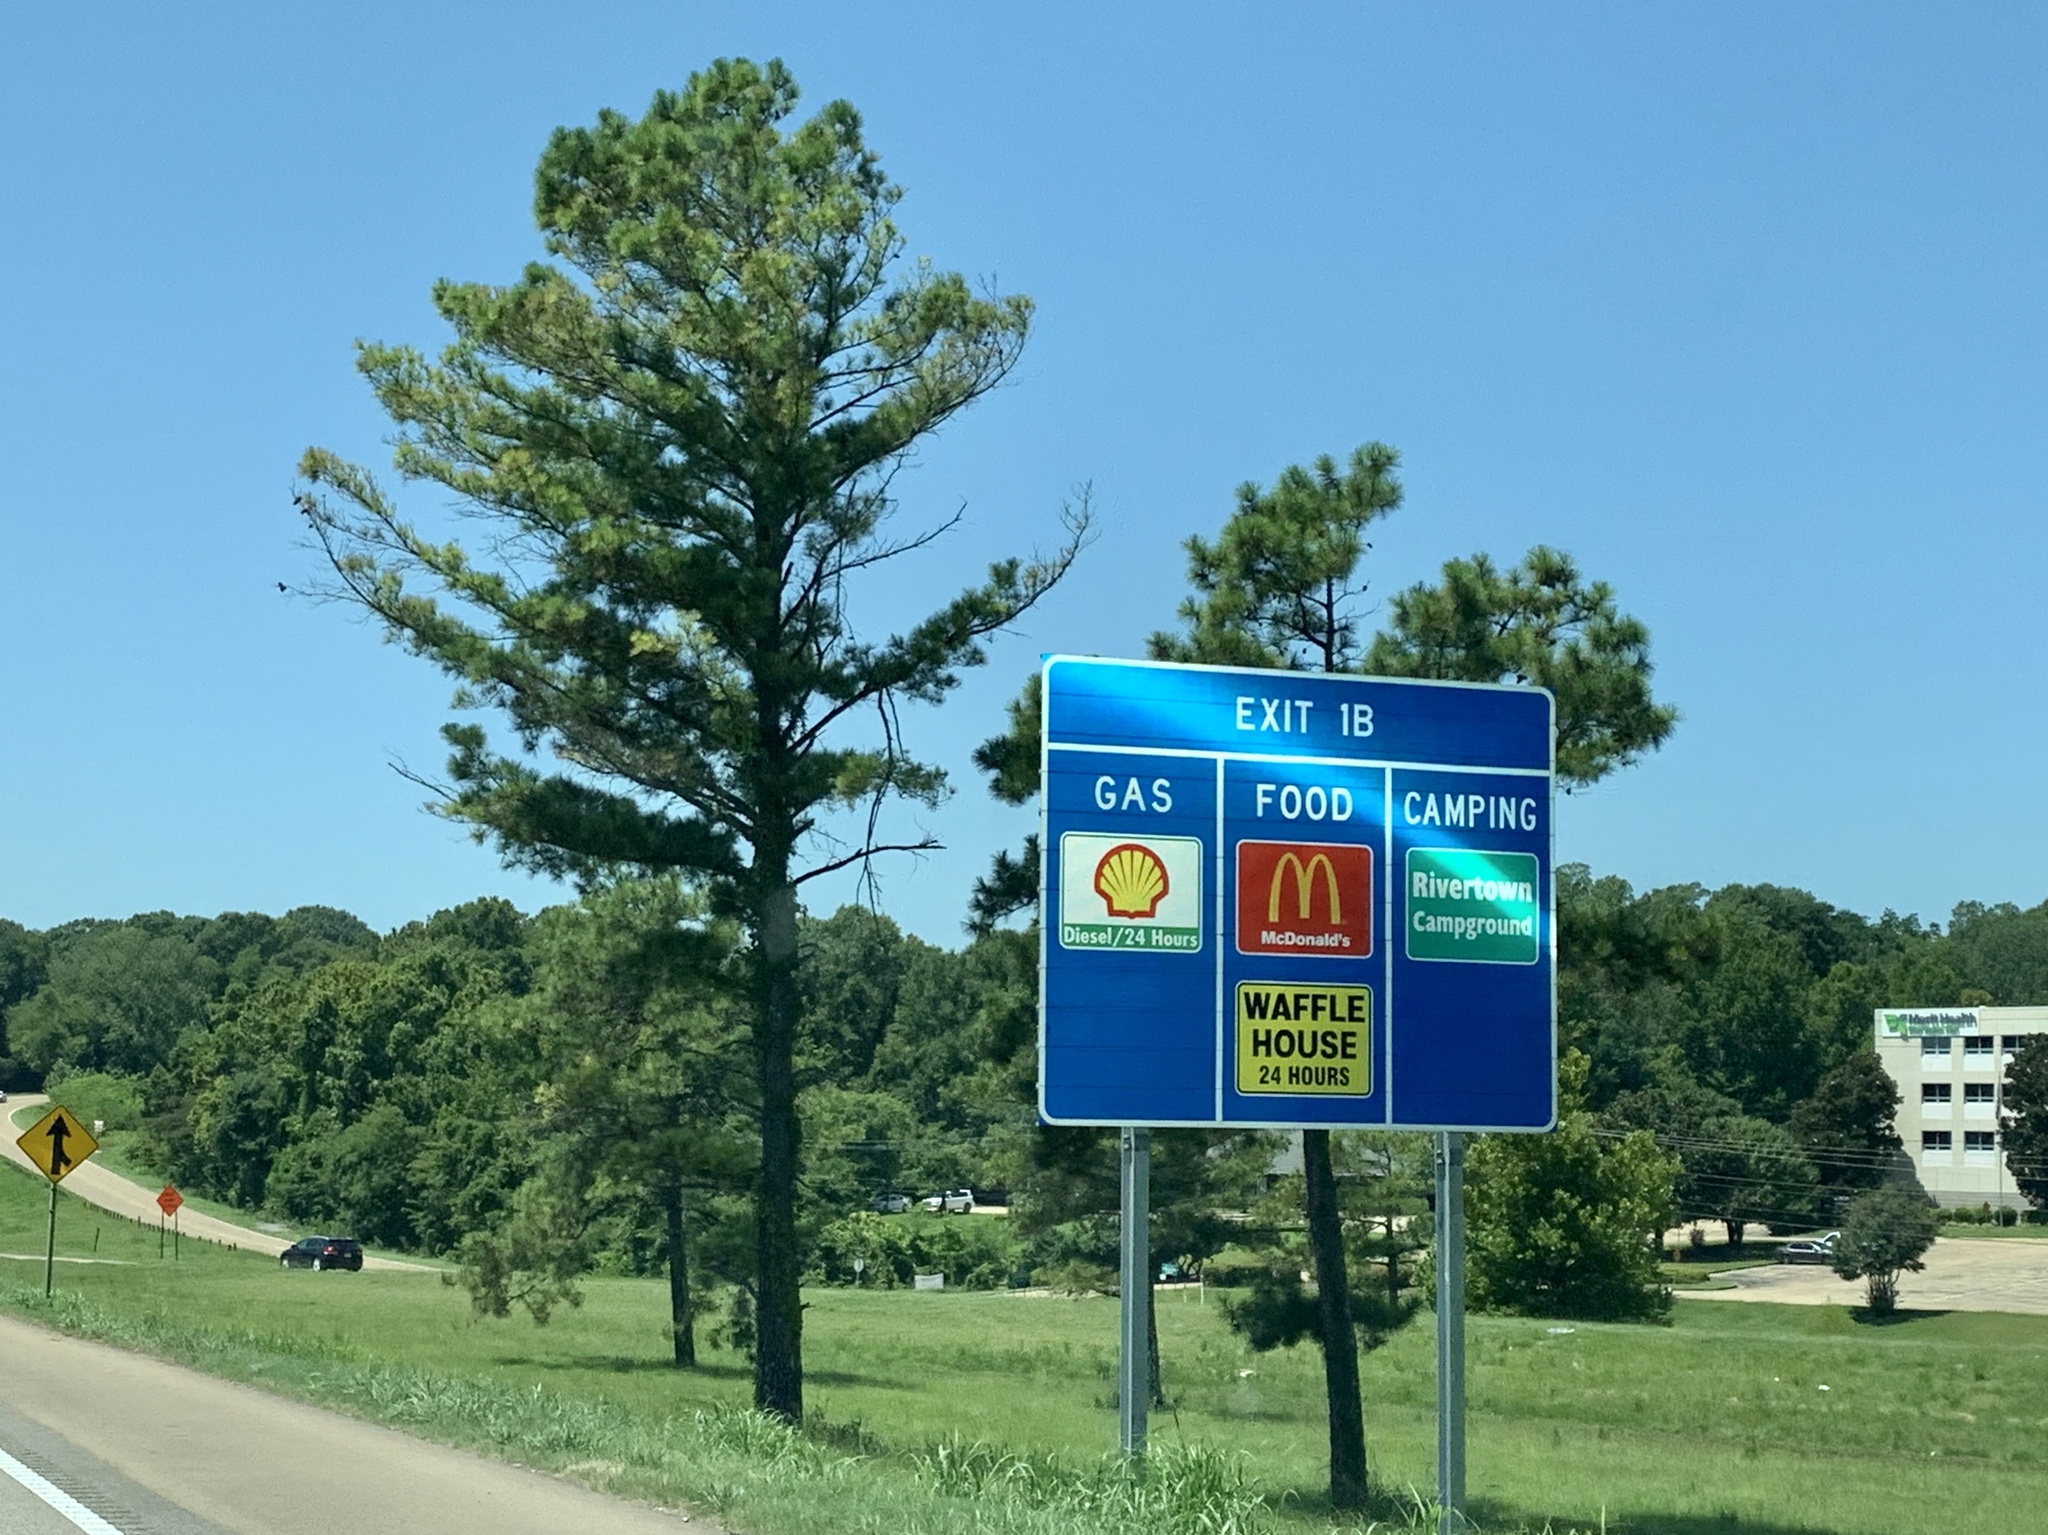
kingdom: Plantae
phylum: Tracheophyta
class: Pinopsida
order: Pinales
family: Pinaceae
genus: Pinus
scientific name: Pinus taeda
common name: Loblolly pine
